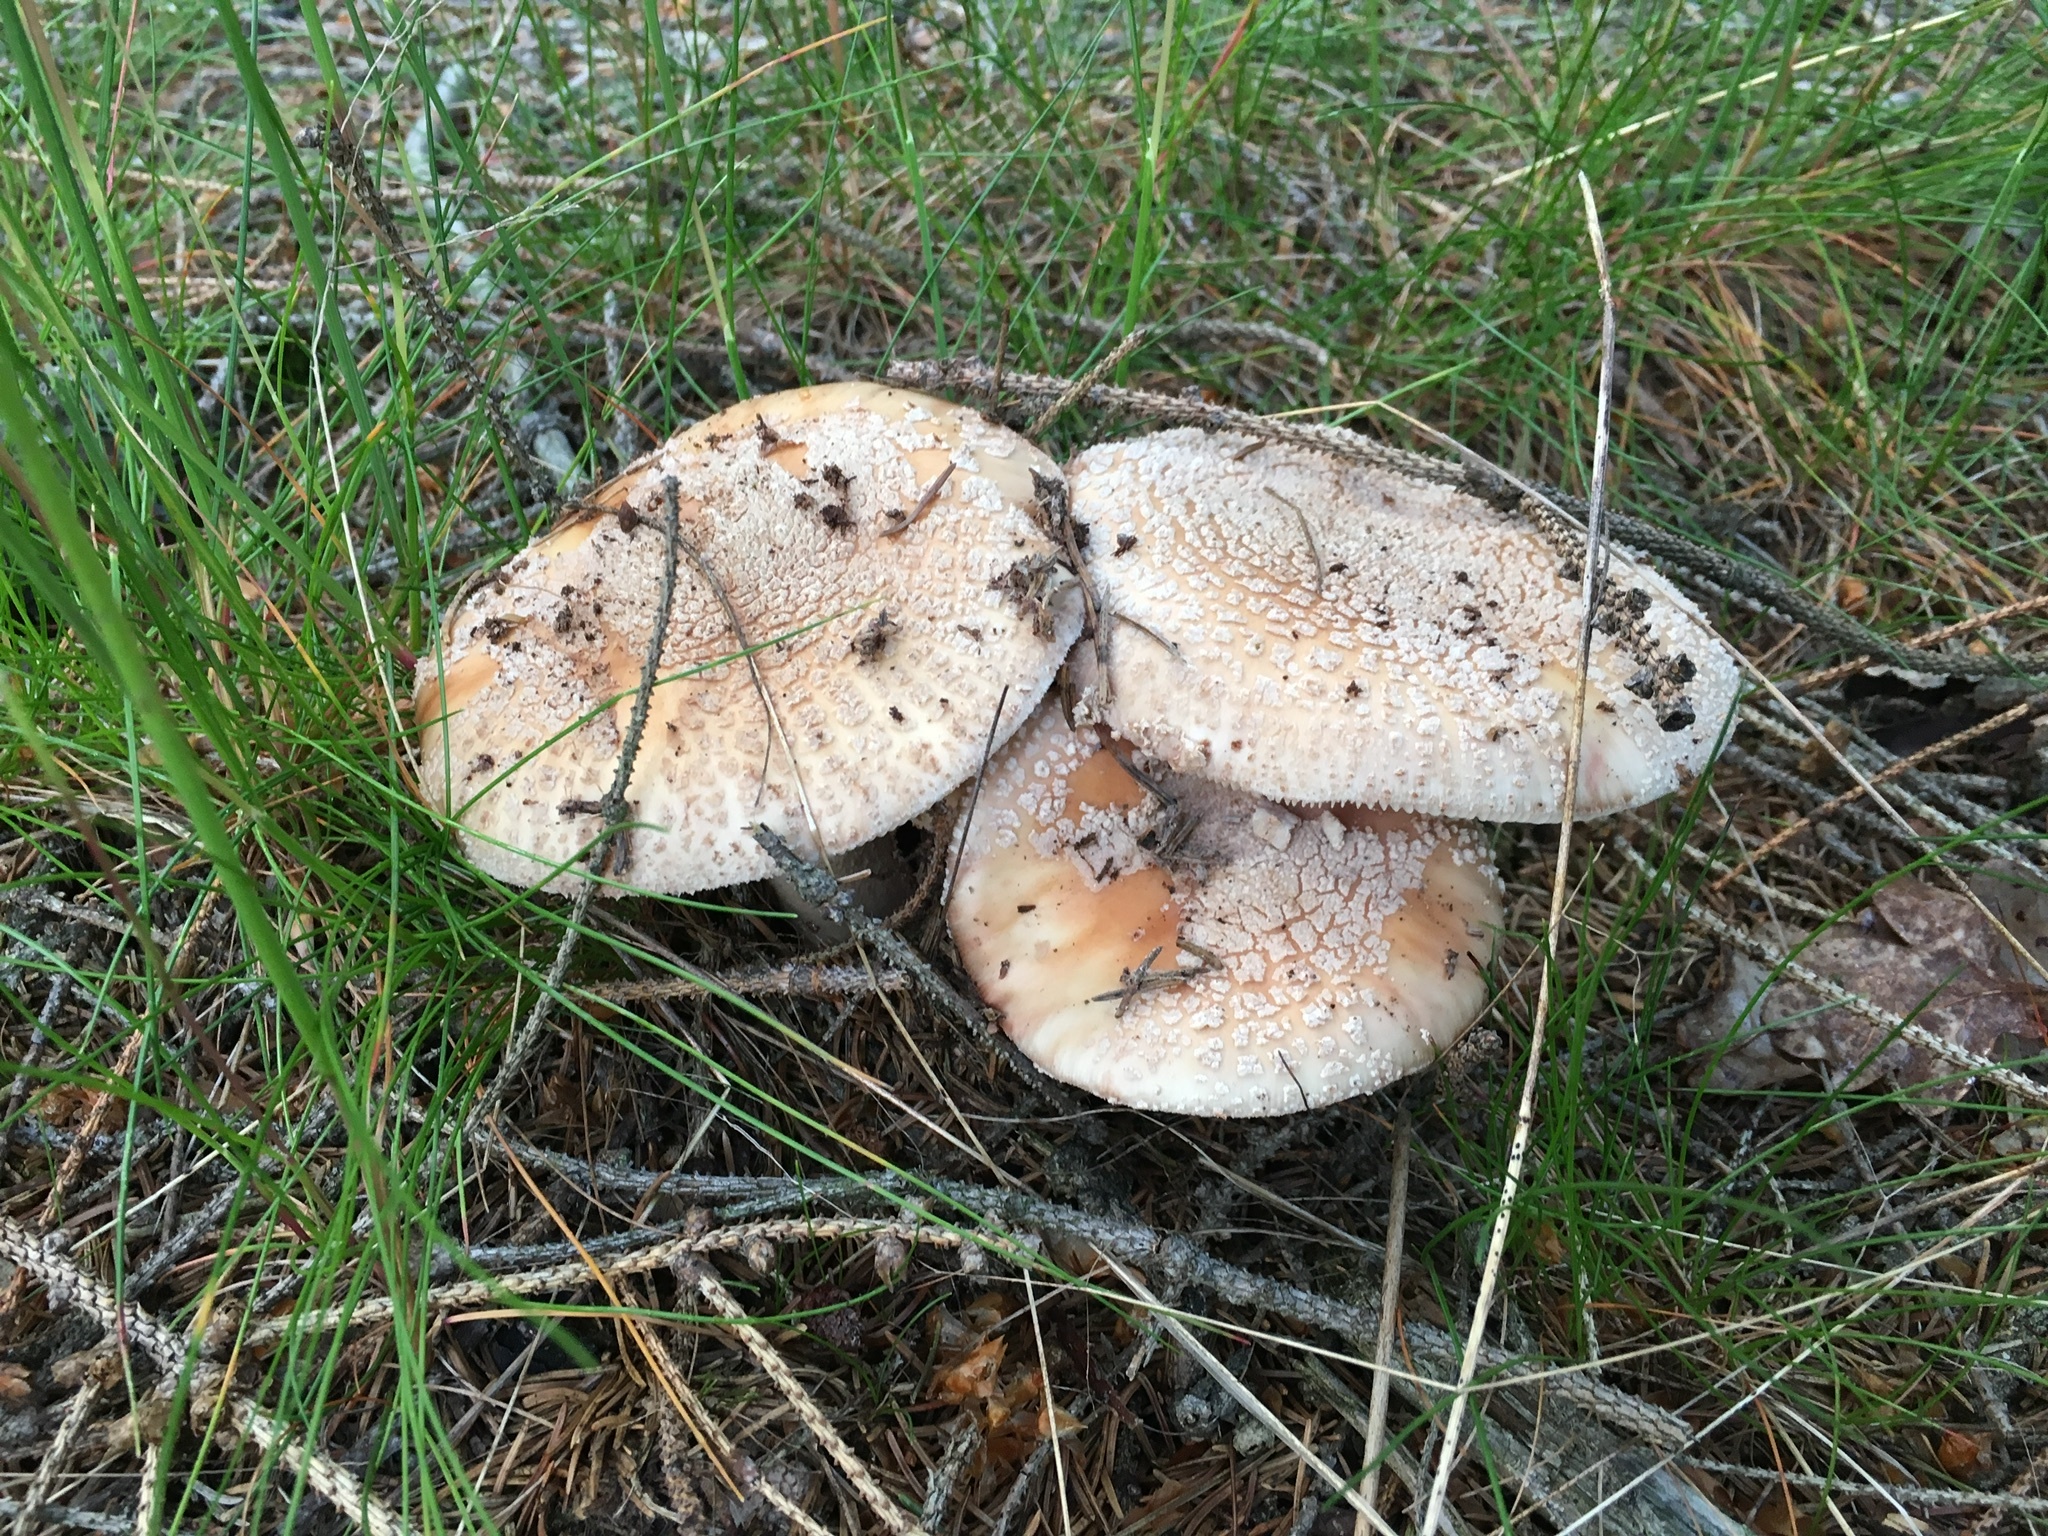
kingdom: Fungi
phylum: Basidiomycota
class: Agaricomycetes
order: Agaricales
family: Amanitaceae
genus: Amanita
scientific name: Amanita rubescens
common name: Blusher
